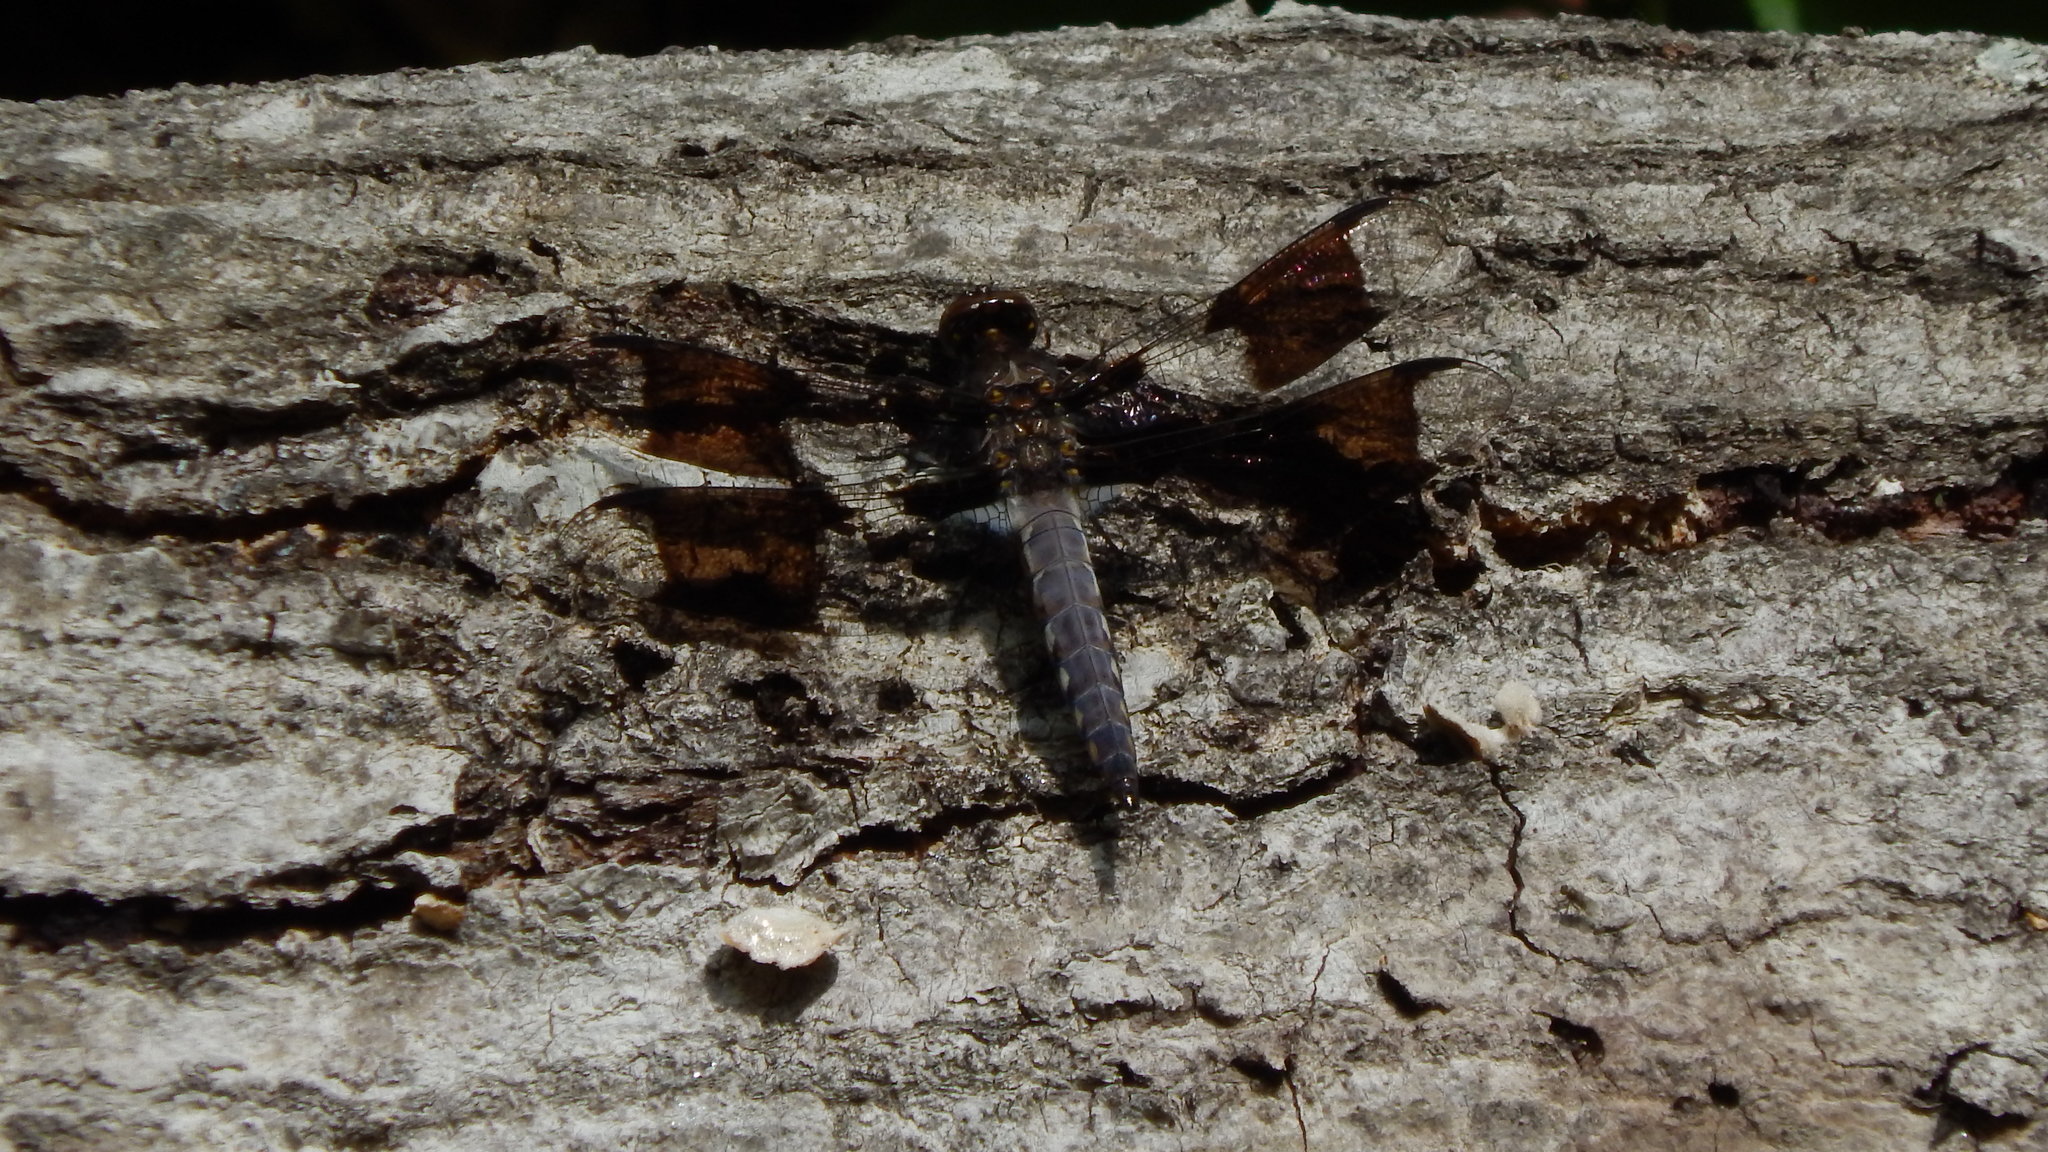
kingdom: Animalia
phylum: Arthropoda
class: Insecta
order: Odonata
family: Libellulidae
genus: Plathemis
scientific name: Plathemis lydia
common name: Common whitetail
